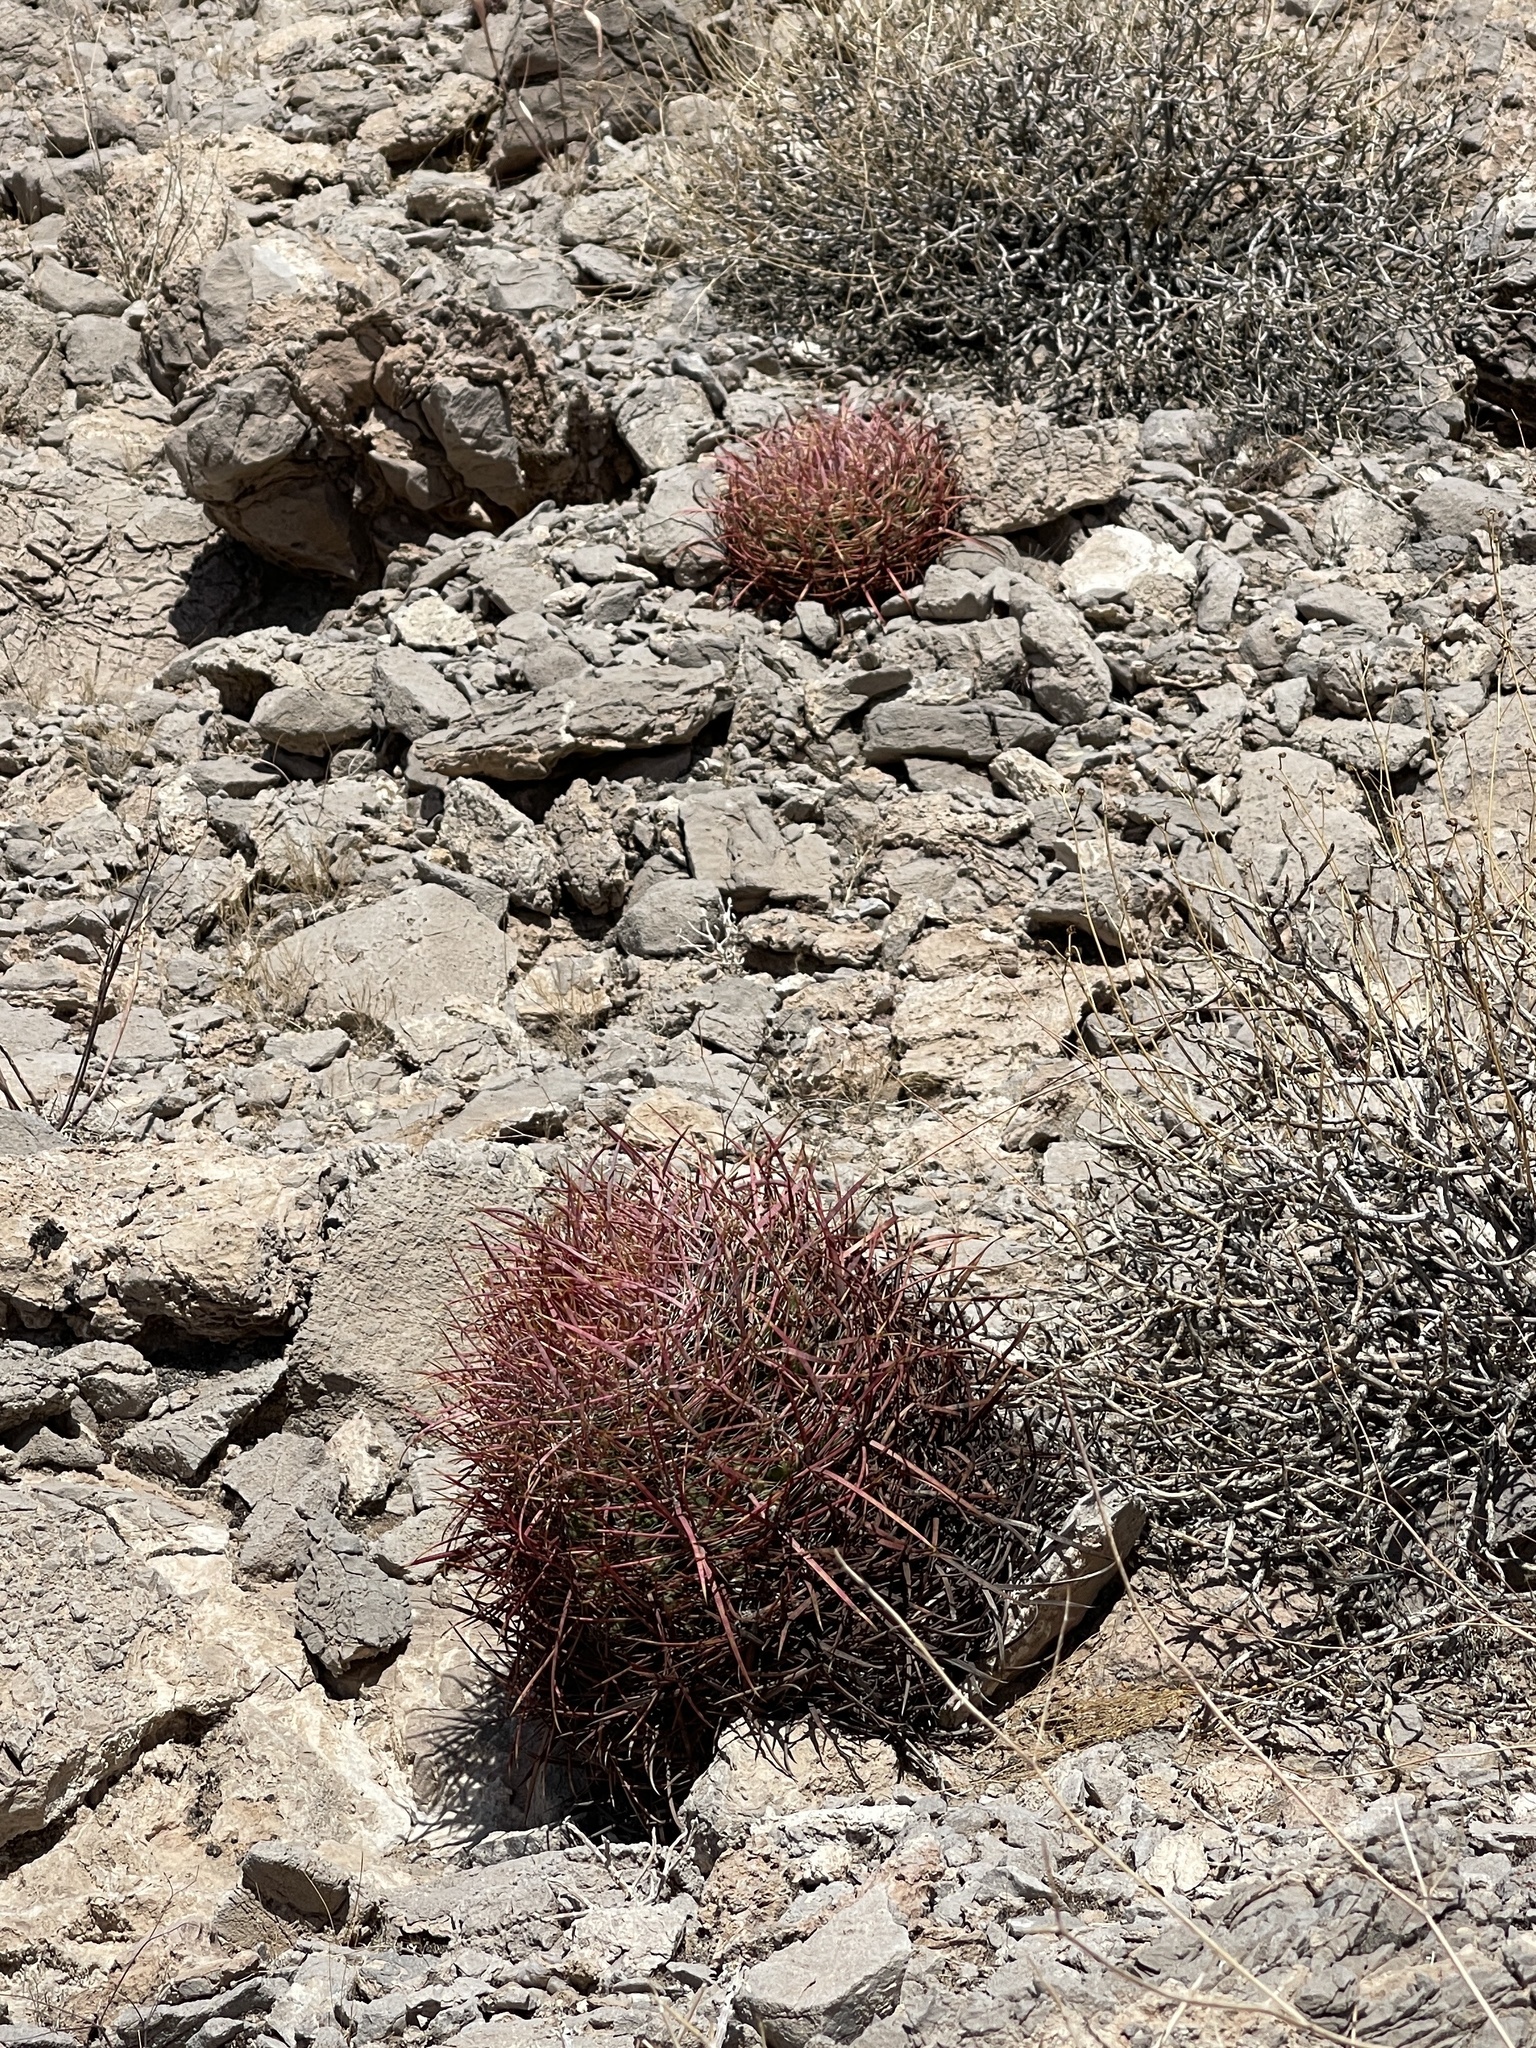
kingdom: Plantae
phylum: Tracheophyta
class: Magnoliopsida
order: Caryophyllales
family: Cactaceae
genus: Ferocactus
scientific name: Ferocactus cylindraceus
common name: California barrel cactus
